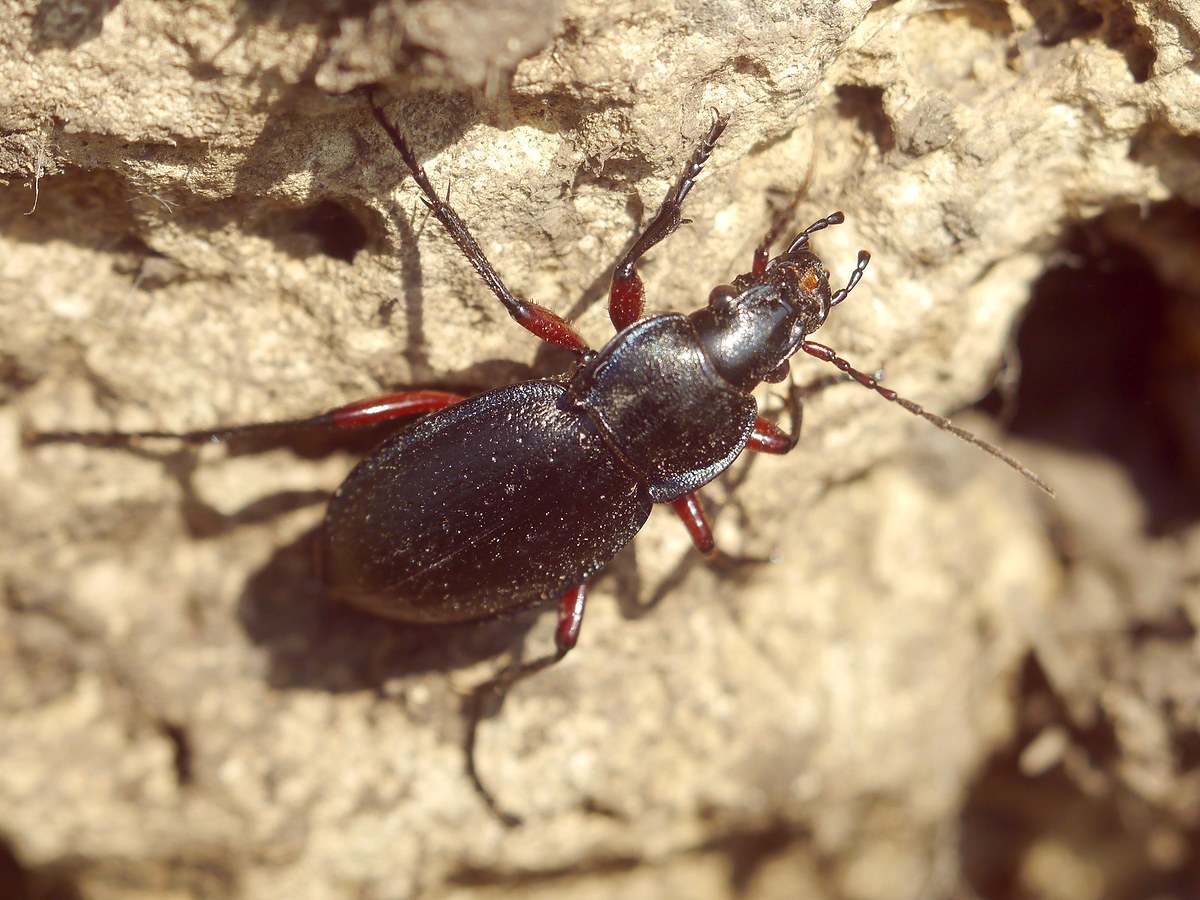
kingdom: Animalia
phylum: Arthropoda
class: Insecta
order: Coleoptera
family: Carabidae
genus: Carabus
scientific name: Carabus besseri
